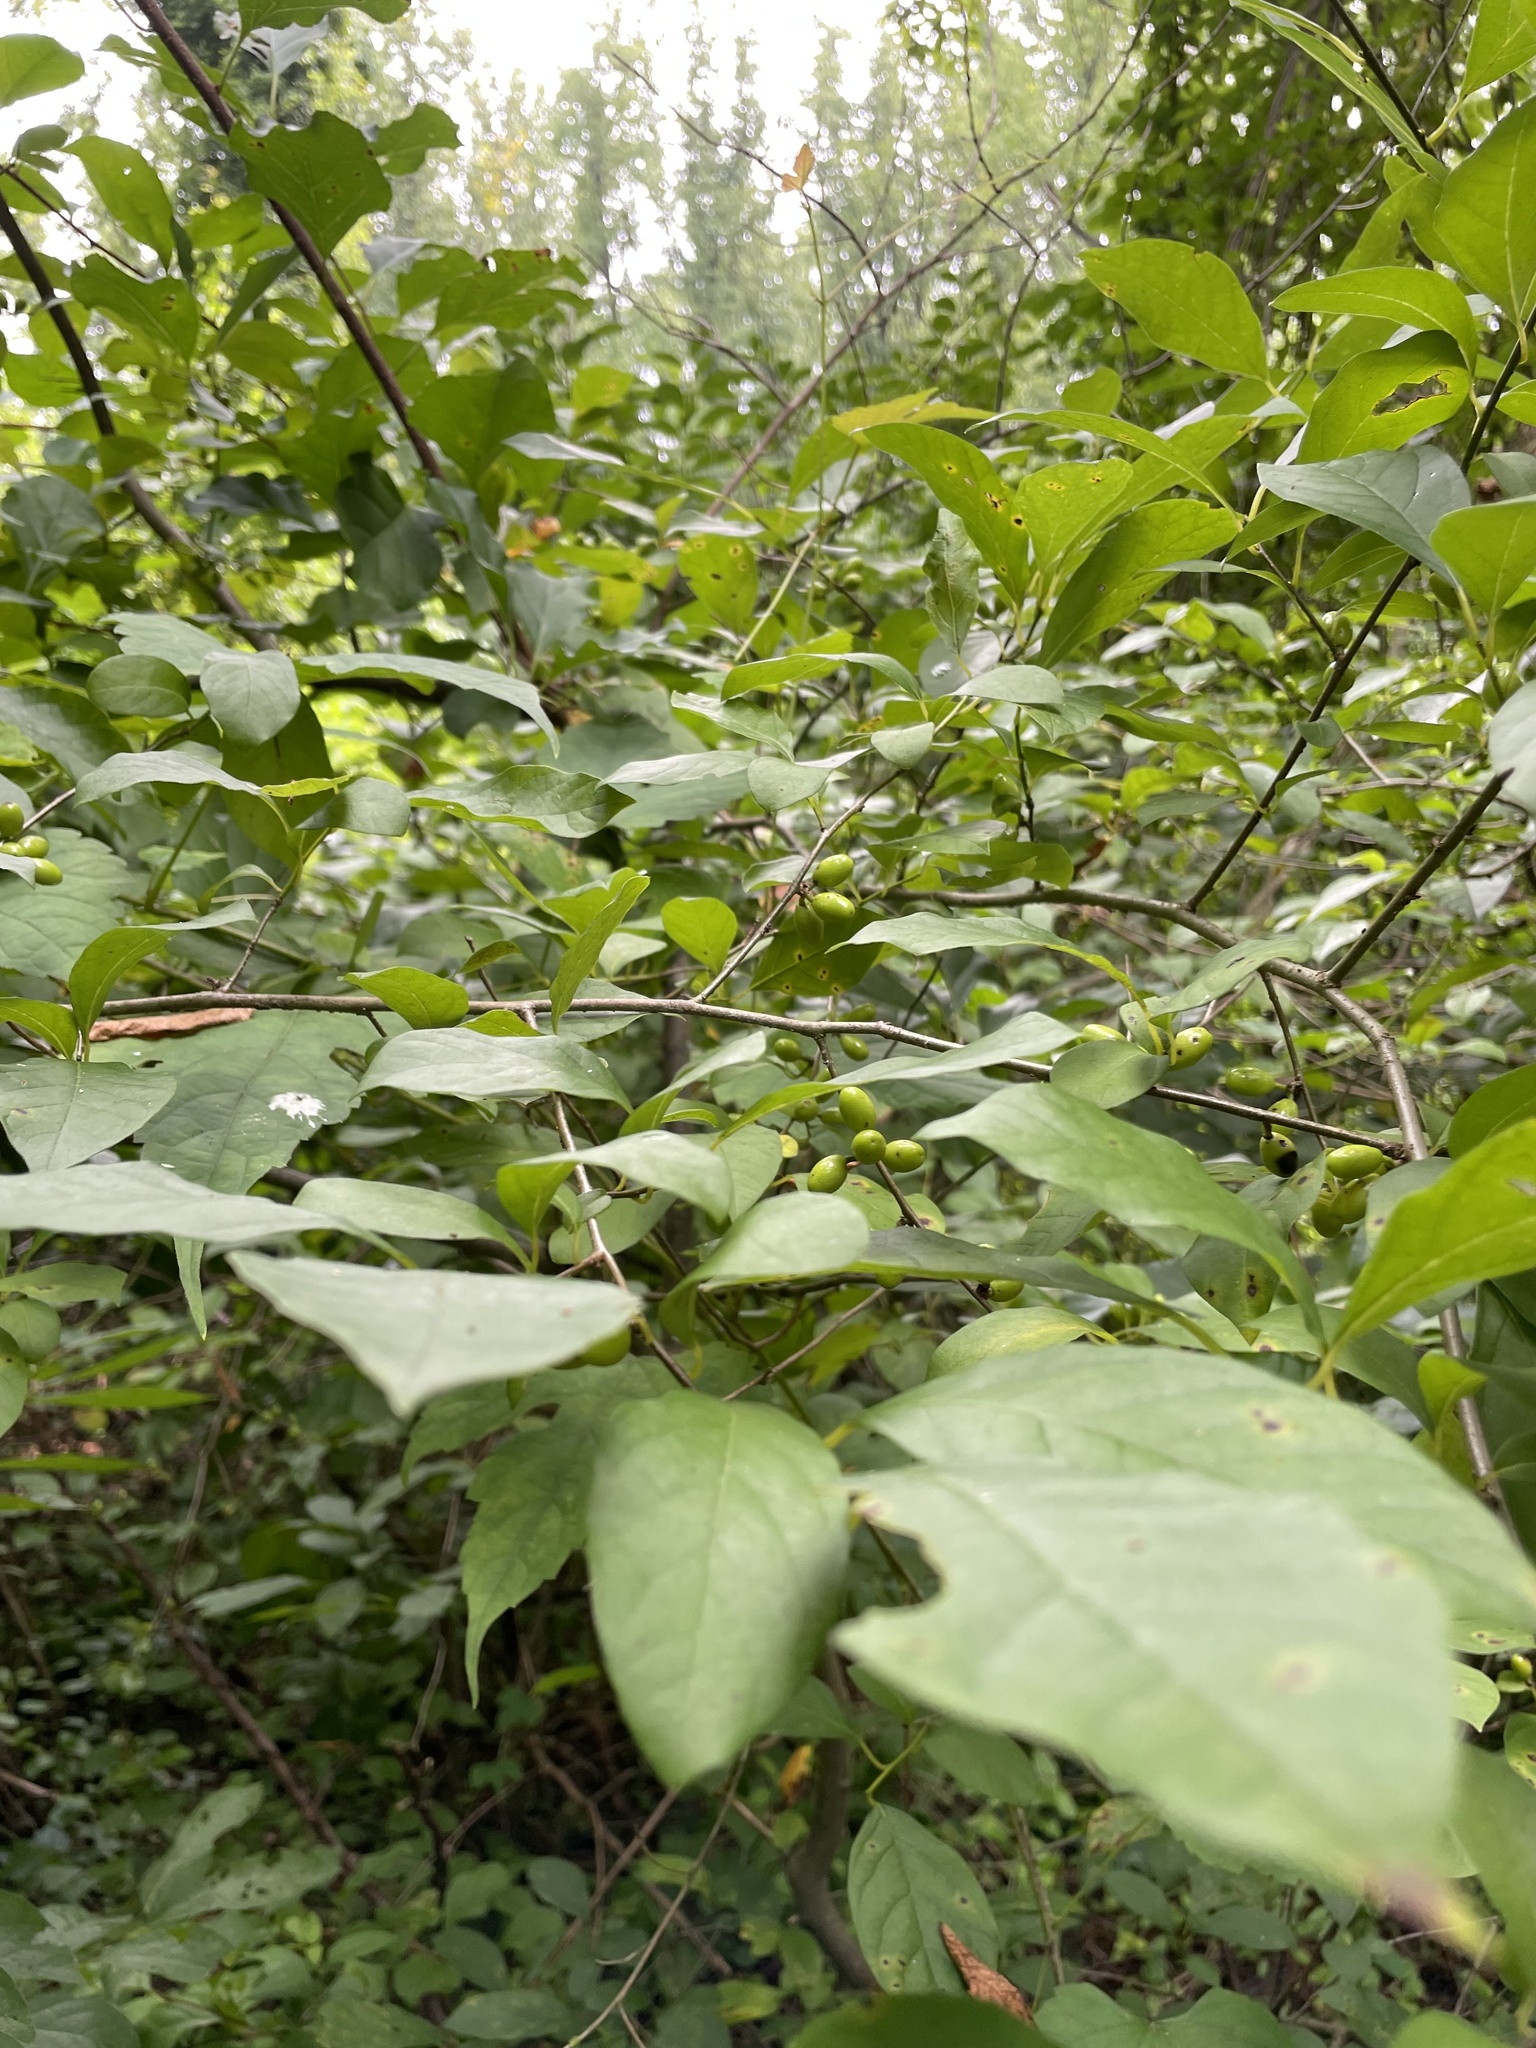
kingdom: Plantae
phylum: Tracheophyta
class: Magnoliopsida
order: Laurales
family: Lauraceae
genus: Lindera
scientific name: Lindera benzoin
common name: Spicebush
